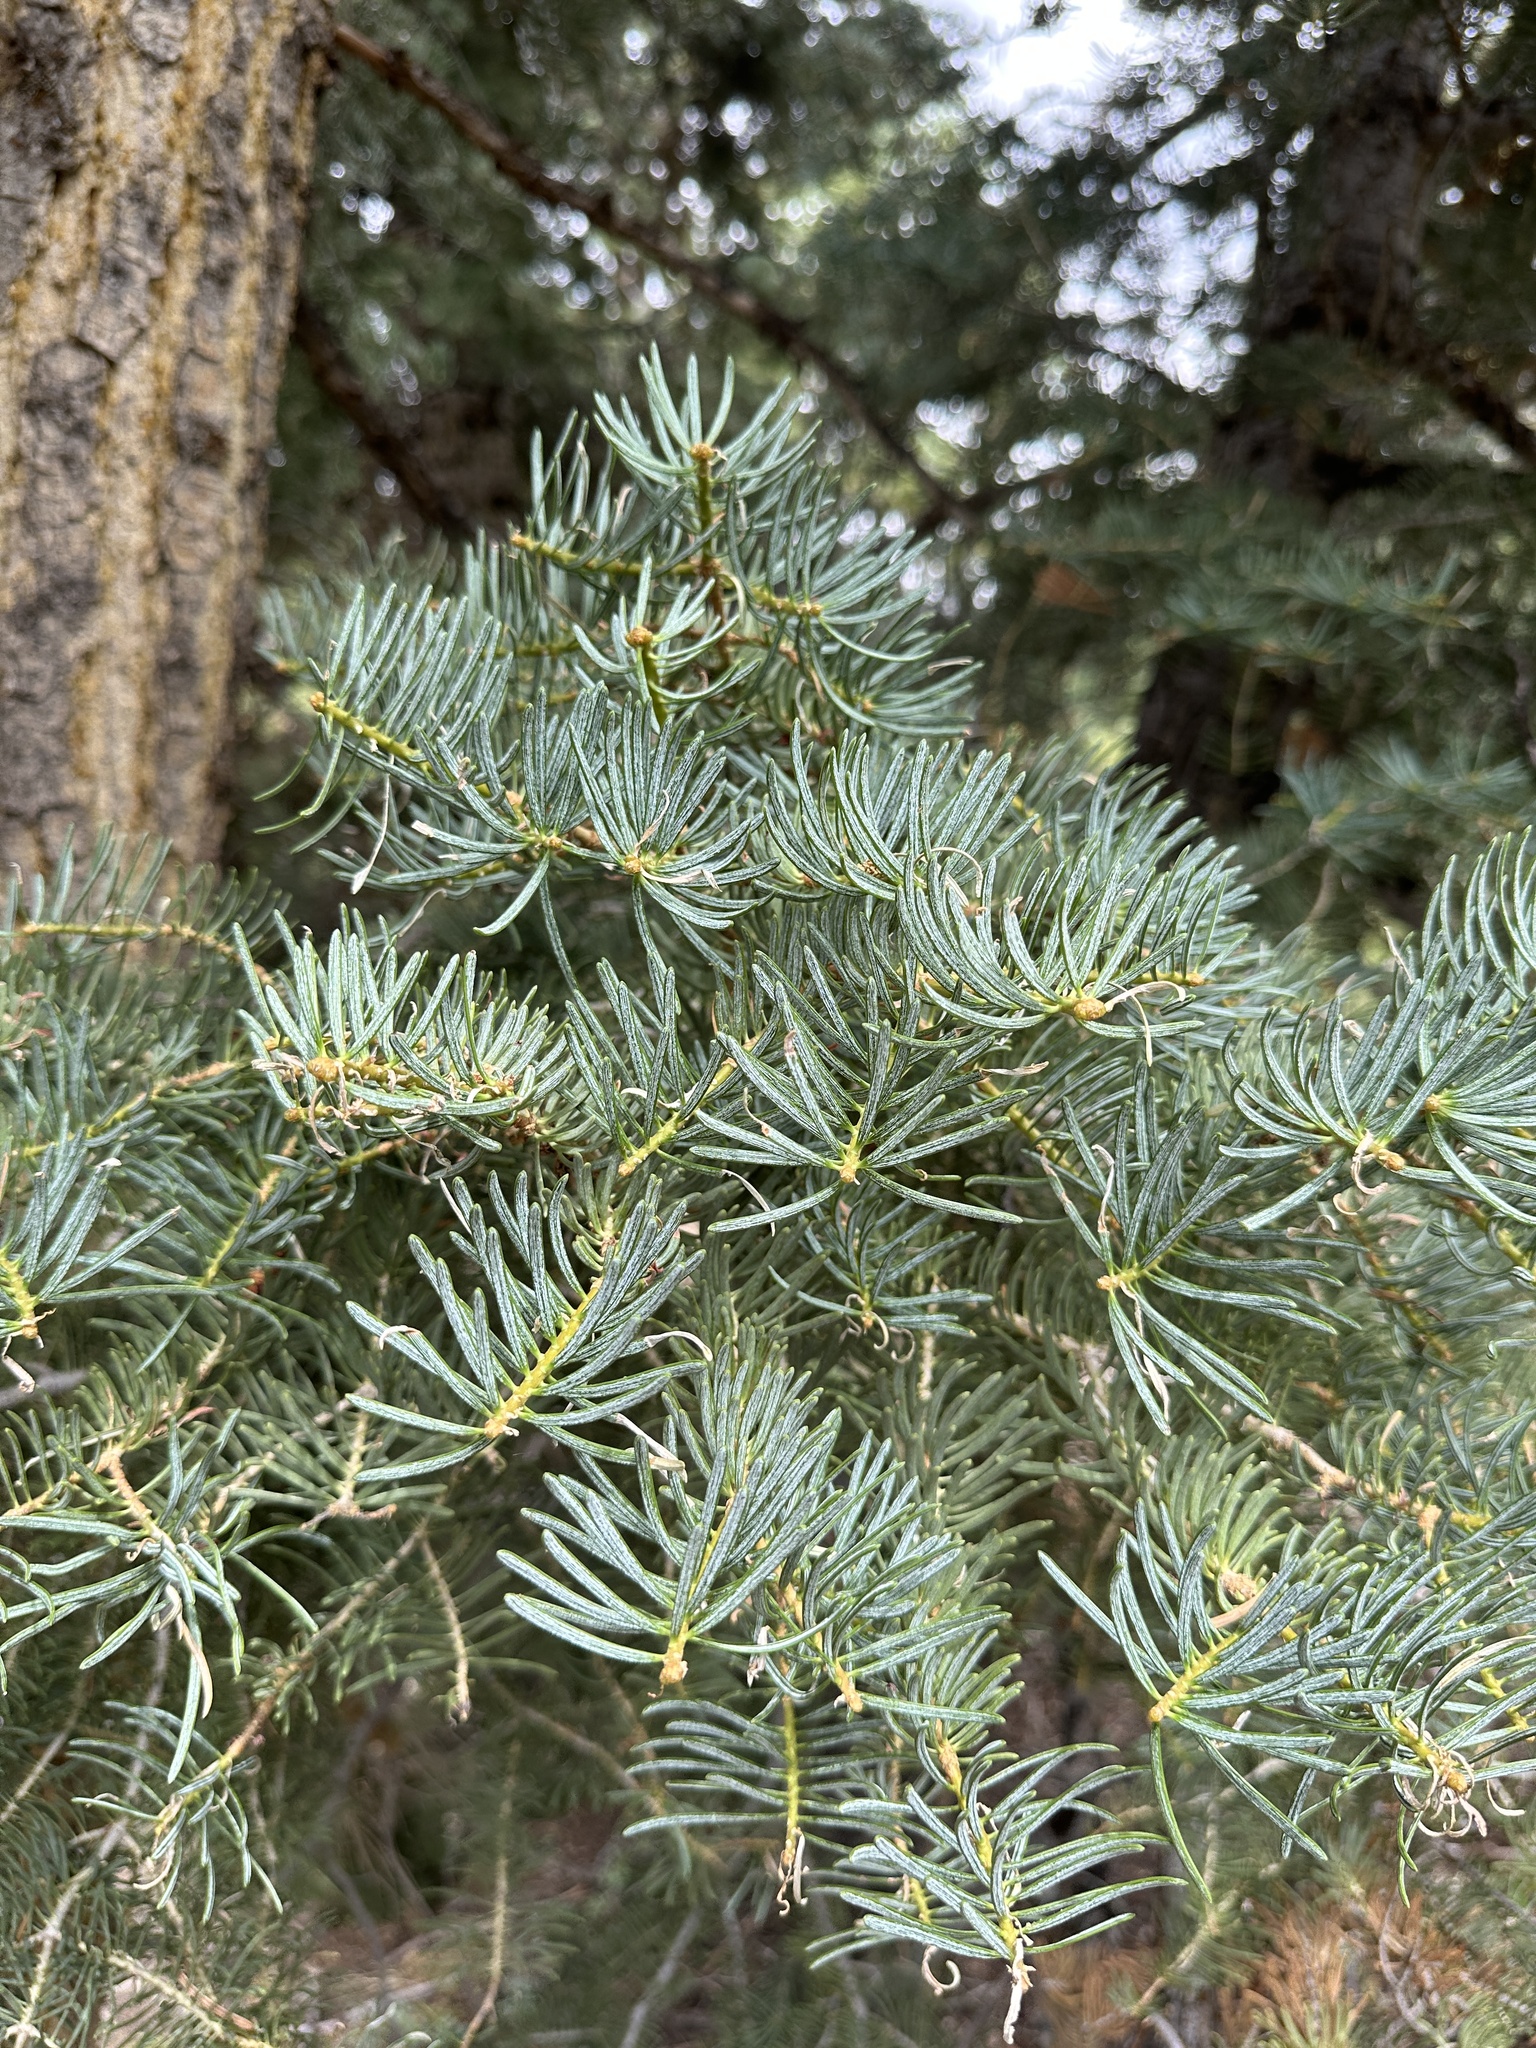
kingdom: Plantae
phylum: Tracheophyta
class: Pinopsida
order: Pinales
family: Pinaceae
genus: Abies
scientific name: Abies concolor
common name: Colorado fir
